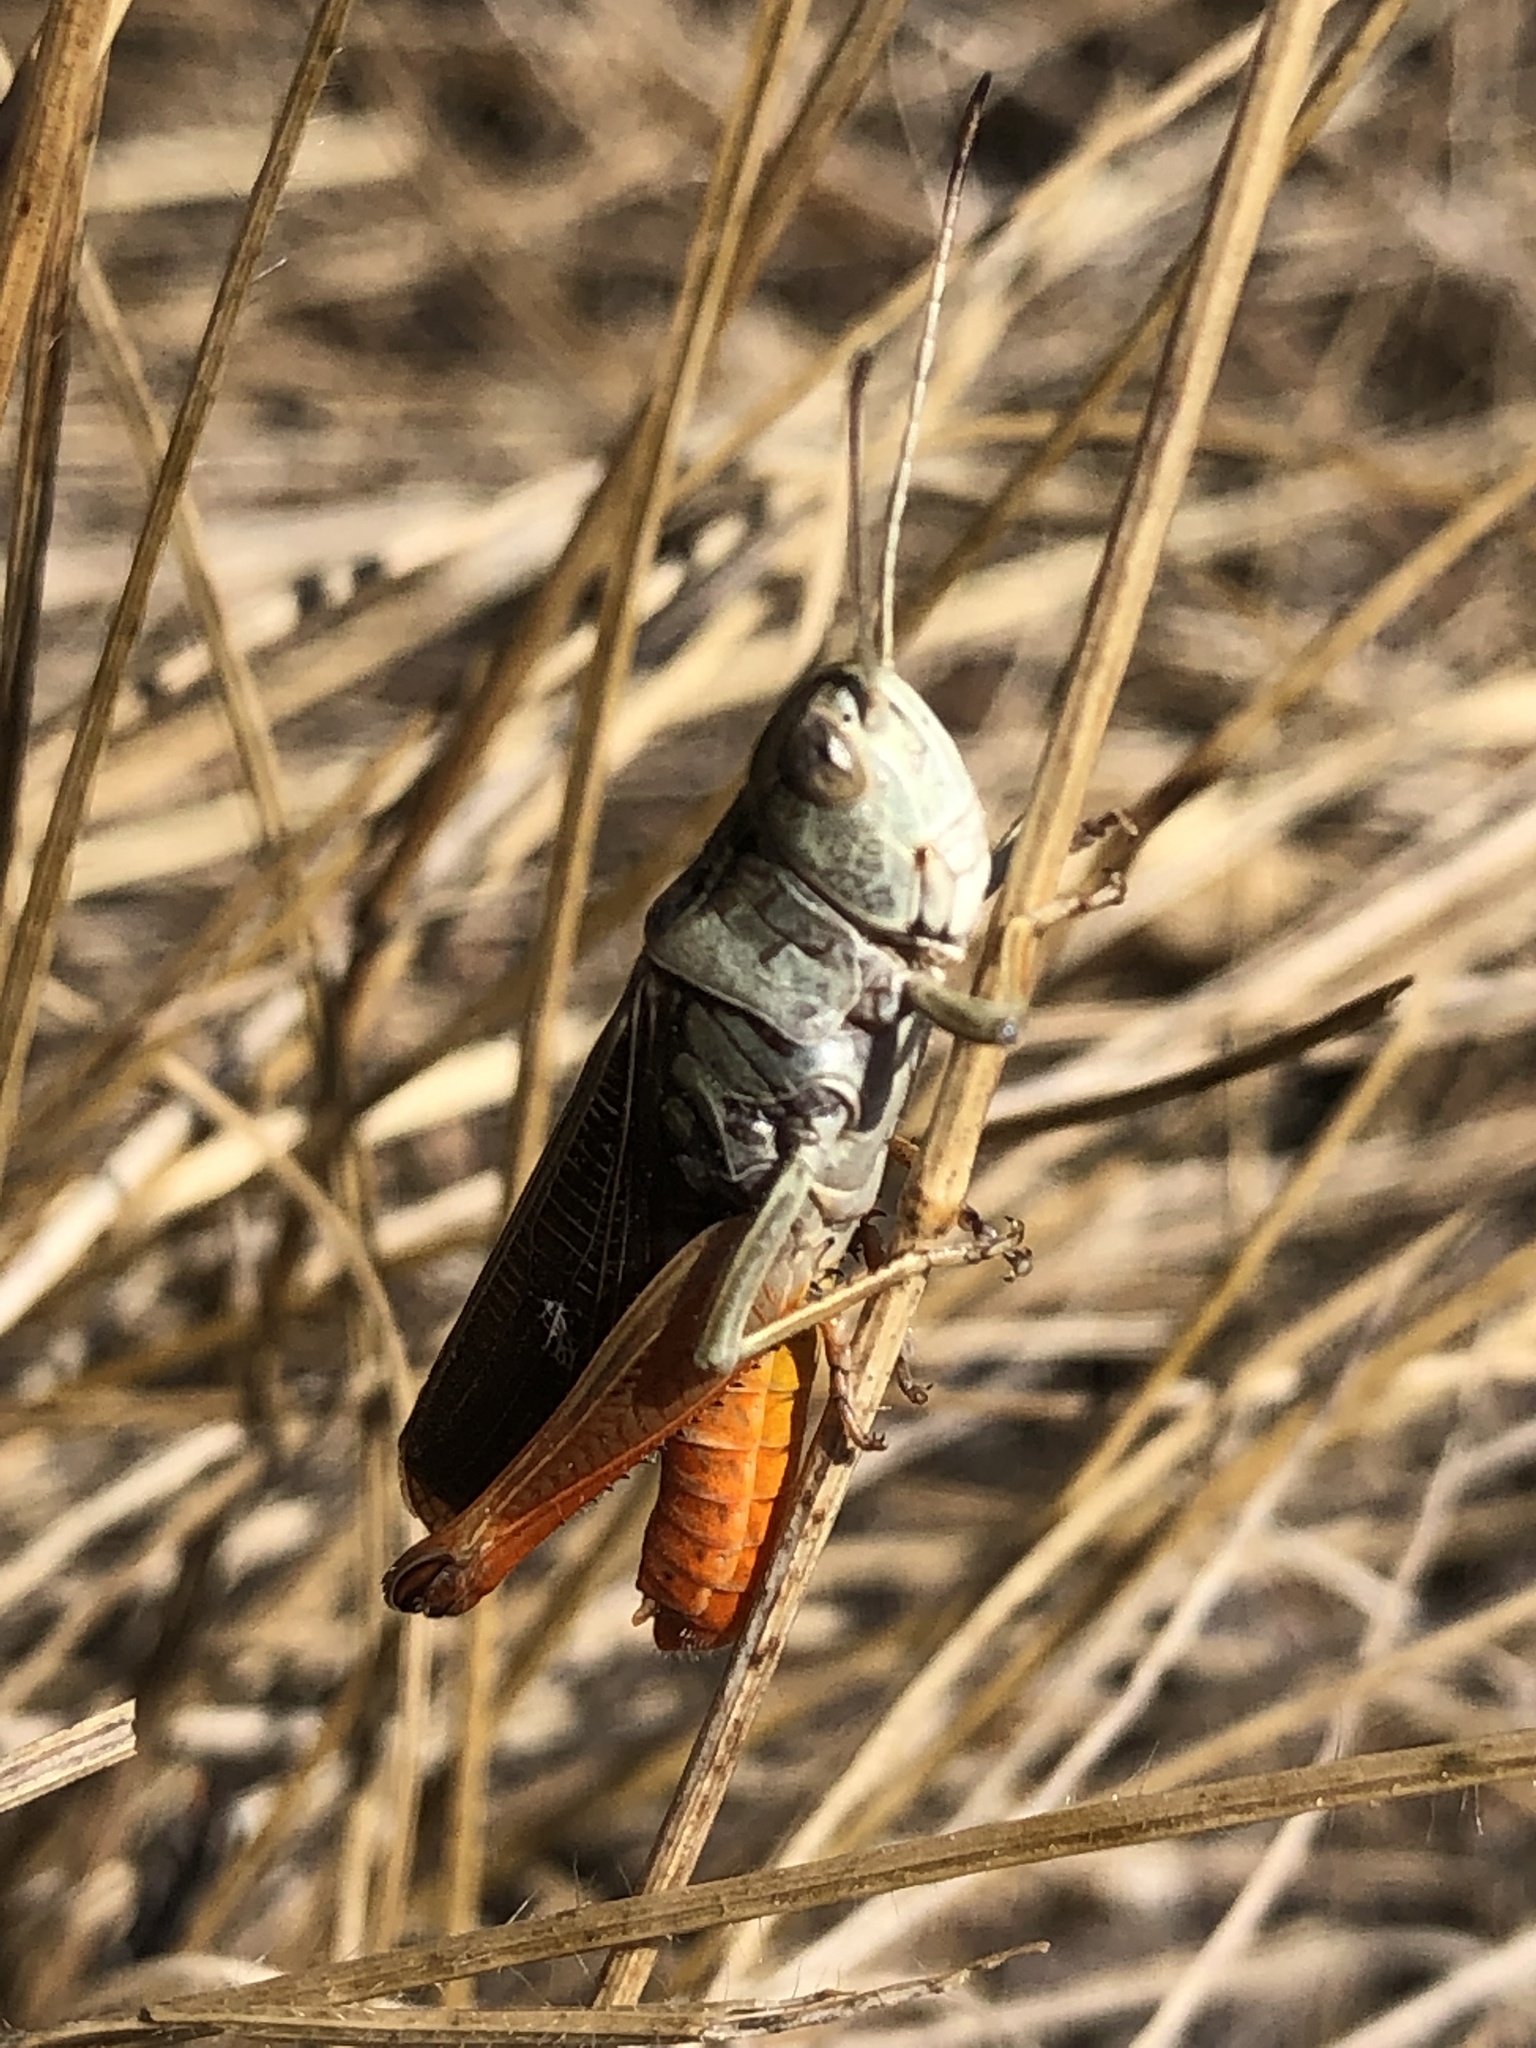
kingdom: Animalia
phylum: Arthropoda
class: Insecta
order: Orthoptera
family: Acrididae
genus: Stenobothrus
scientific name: Stenobothrus rubicundulus
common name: Wing-buzzing grasshopper
